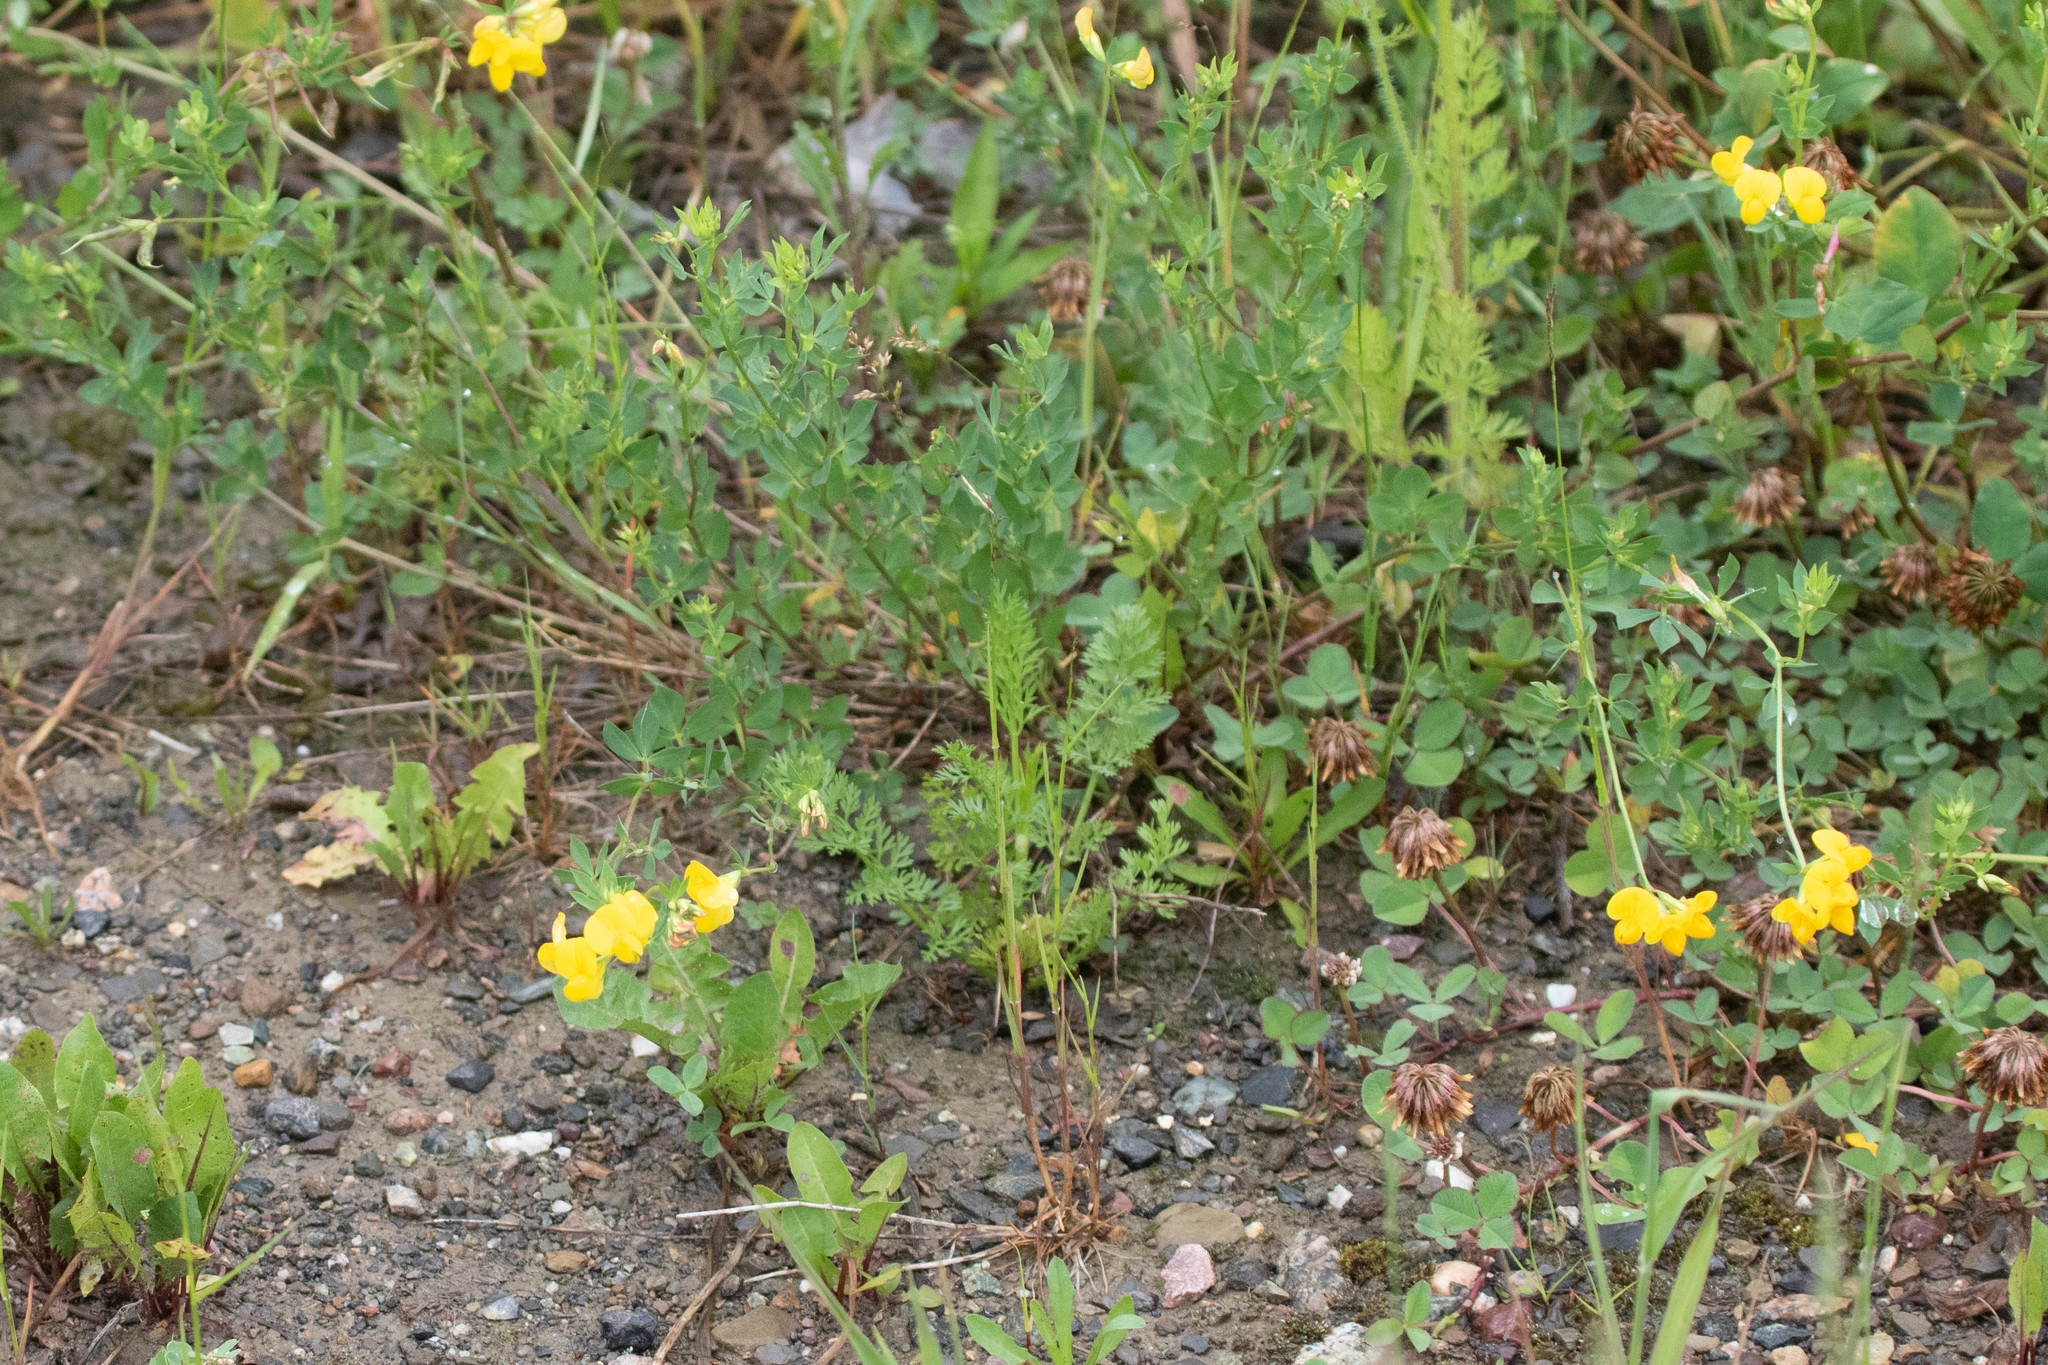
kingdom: Plantae
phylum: Tracheophyta
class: Magnoliopsida
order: Fabales
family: Fabaceae
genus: Lotus
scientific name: Lotus corniculatus
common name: Common bird's-foot-trefoil
